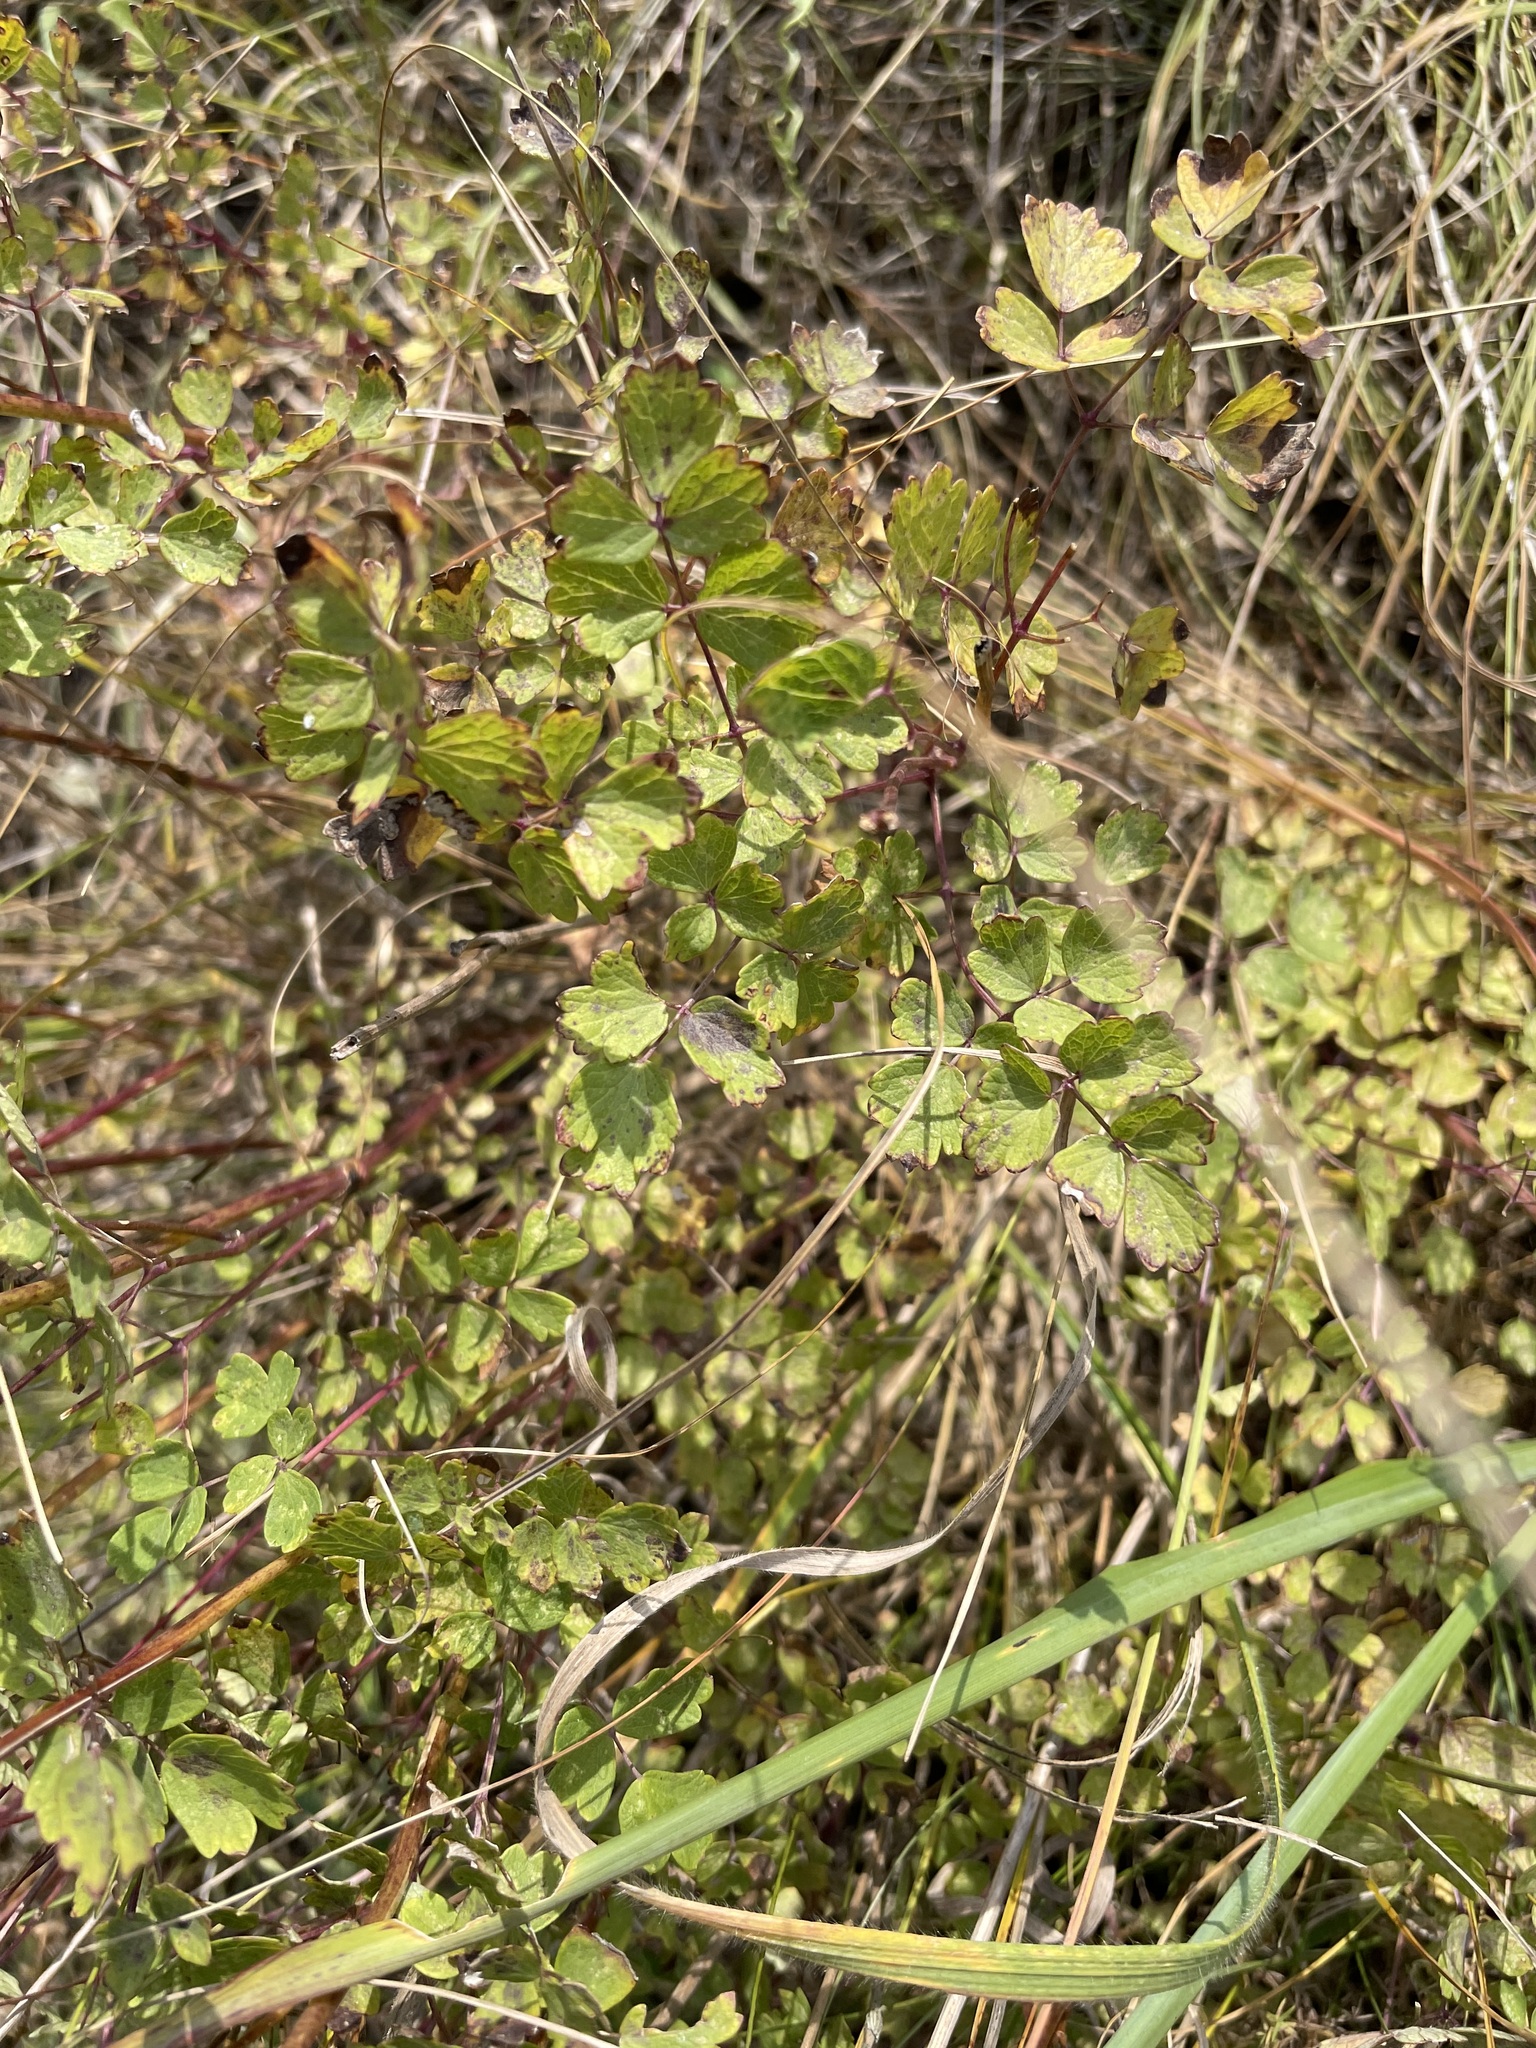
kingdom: Plantae
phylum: Tracheophyta
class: Magnoliopsida
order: Ranunculales
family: Ranunculaceae
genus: Thalictrum
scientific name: Thalictrum minus
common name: Lesser meadow-rue
